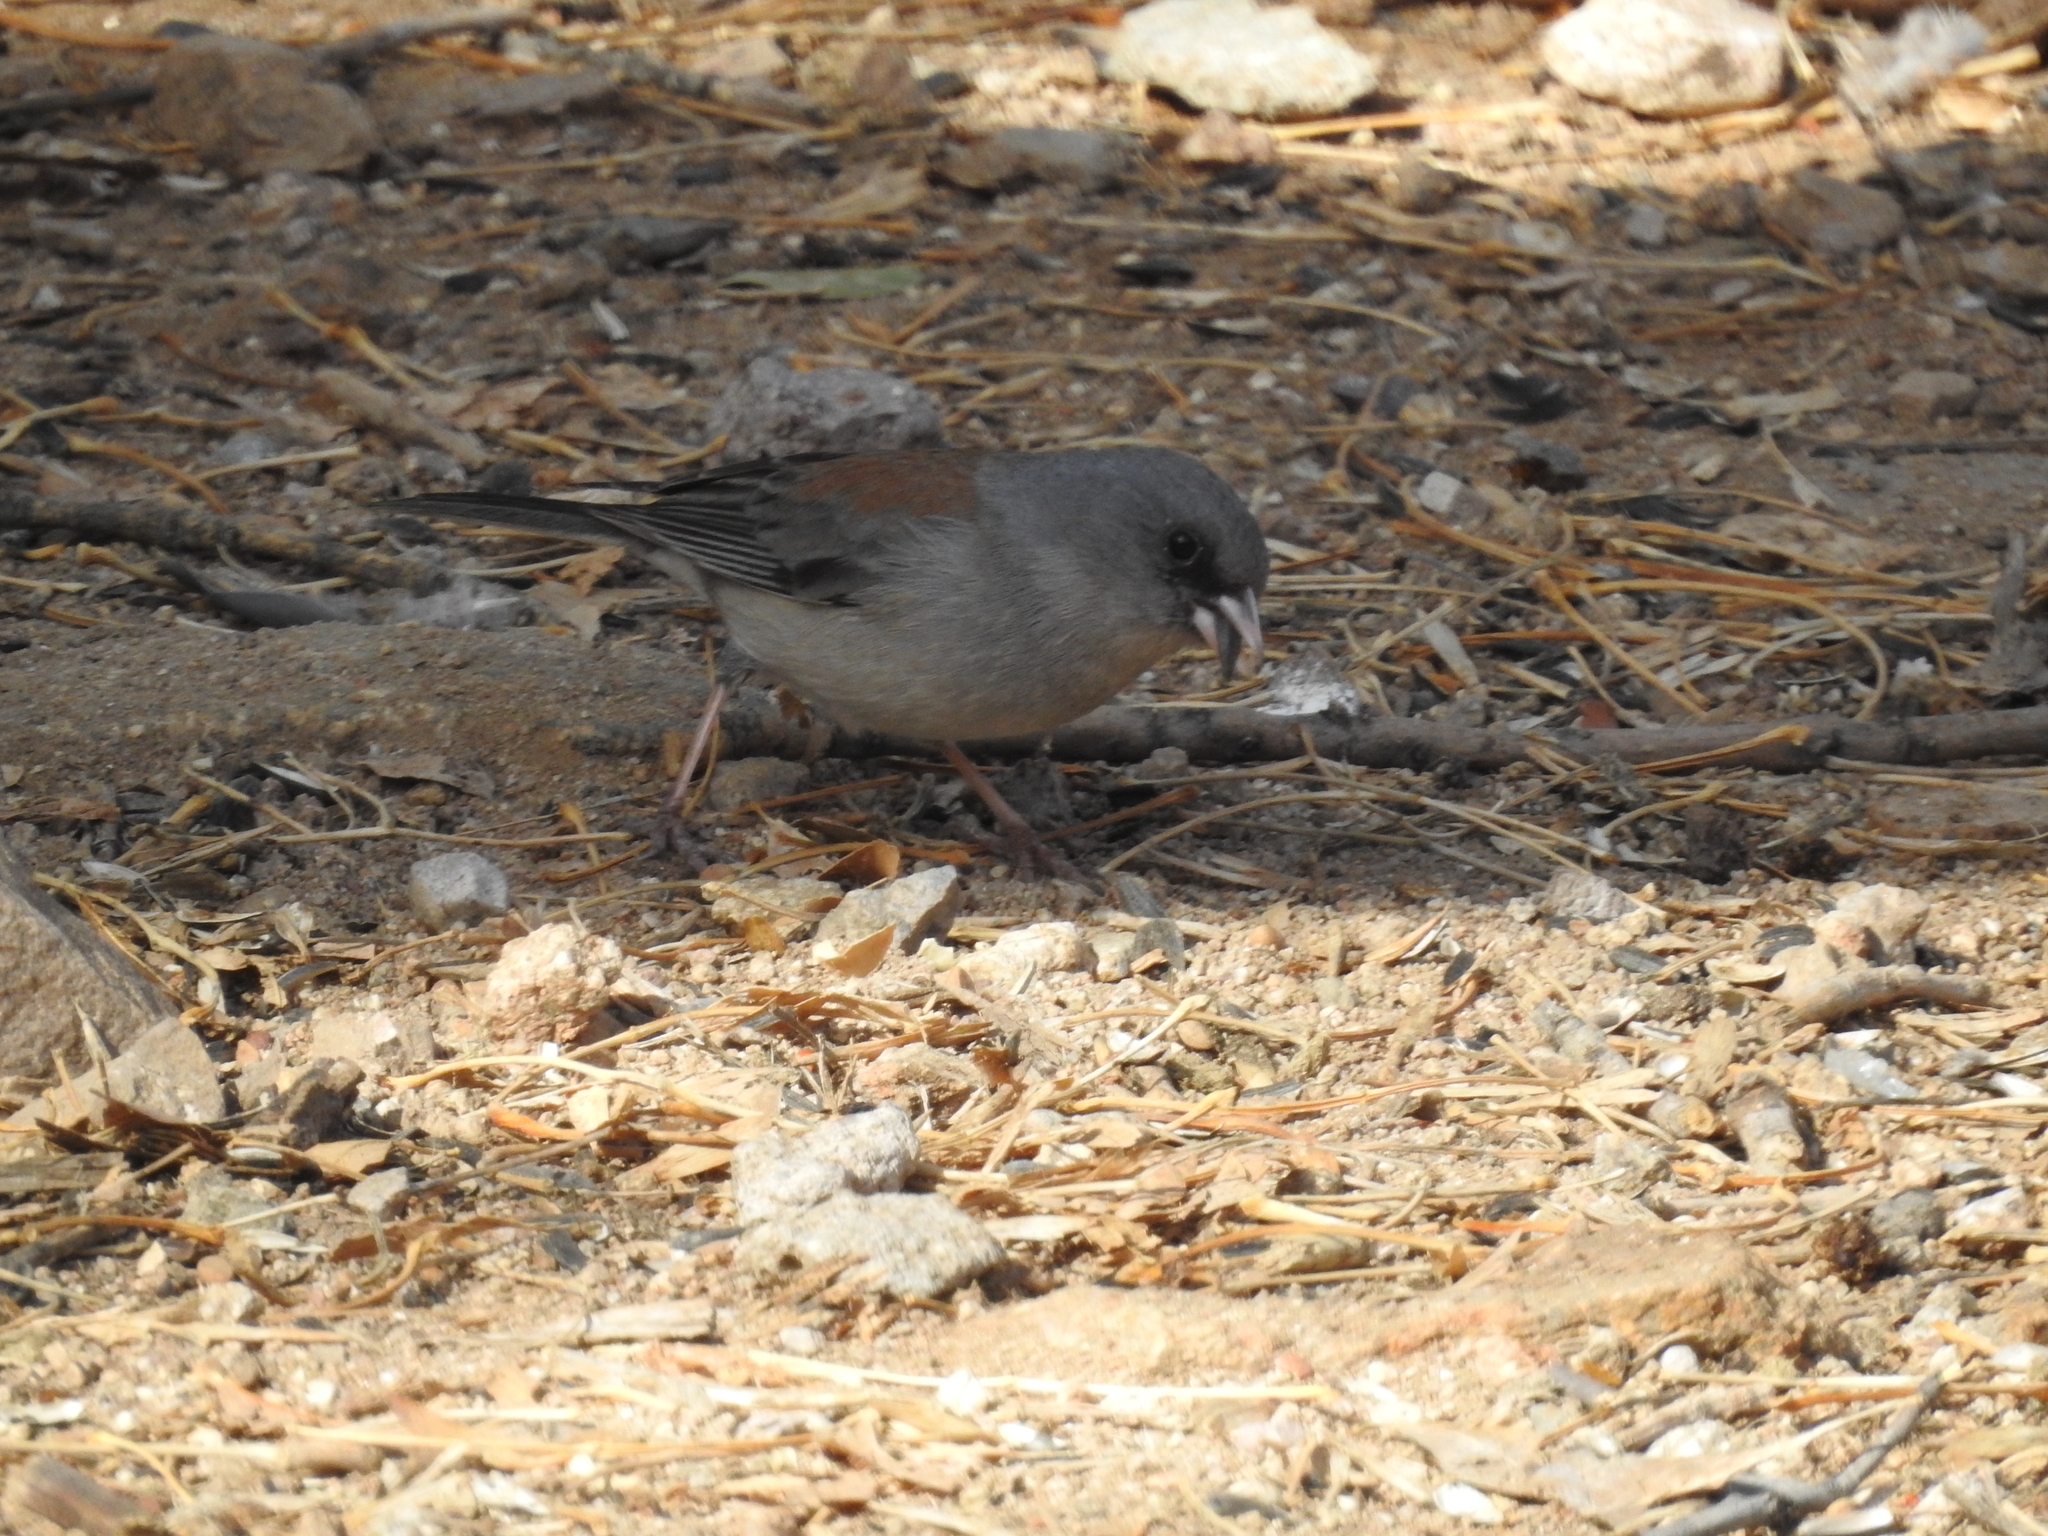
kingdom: Animalia
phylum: Chordata
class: Aves
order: Passeriformes
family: Passerellidae
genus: Junco
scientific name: Junco hyemalis
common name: Dark-eyed junco
